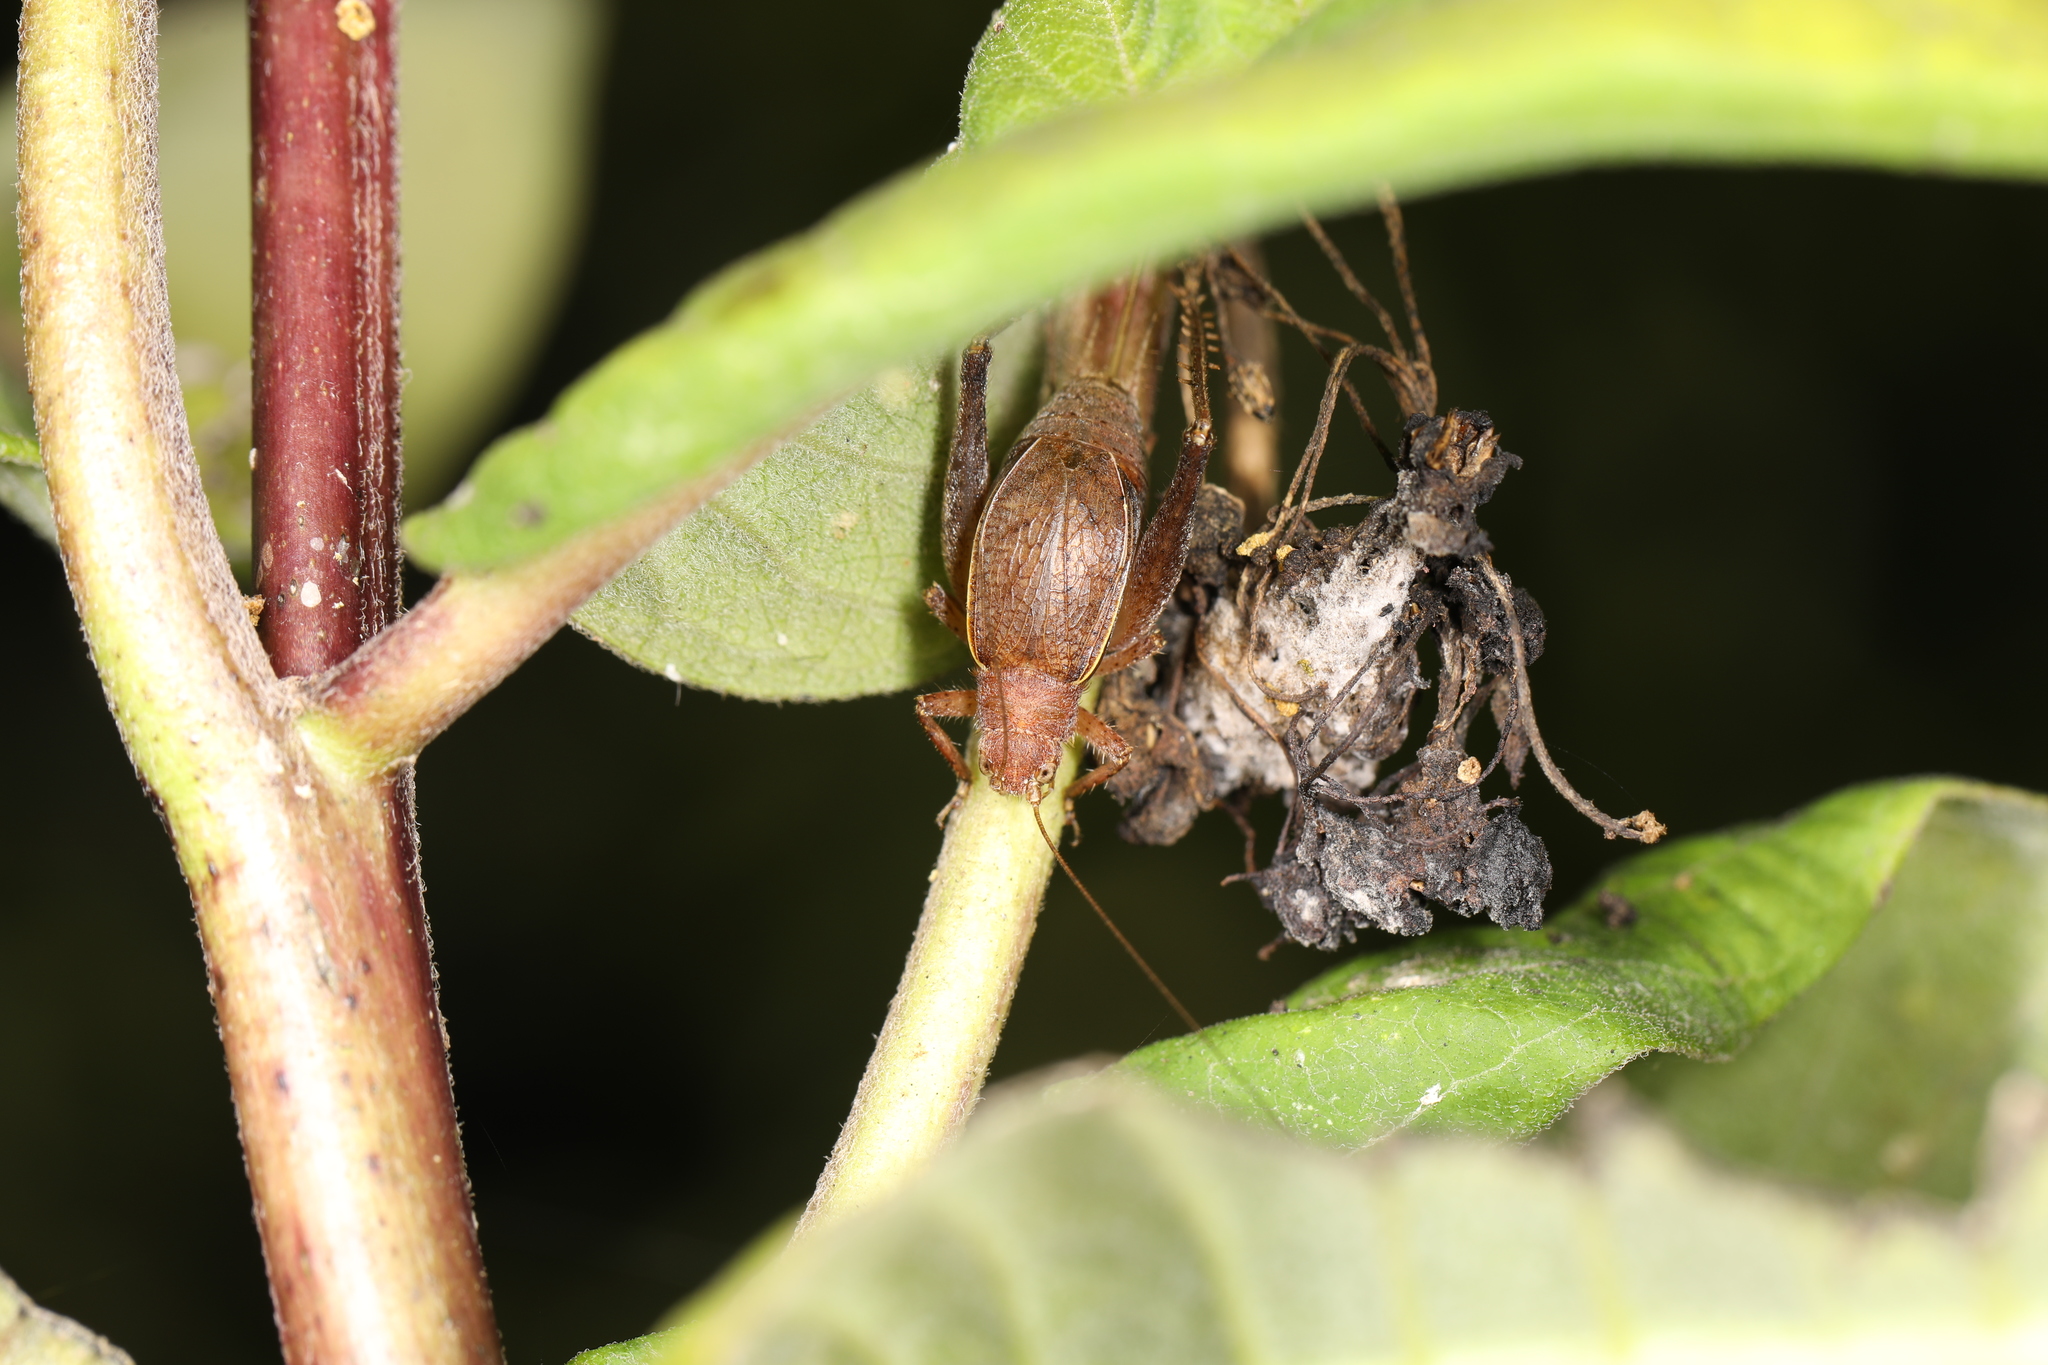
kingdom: Animalia
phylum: Arthropoda
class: Insecta
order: Orthoptera
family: Gryllidae
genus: Hapithus
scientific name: Hapithus agitator
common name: Restless bush cricket
